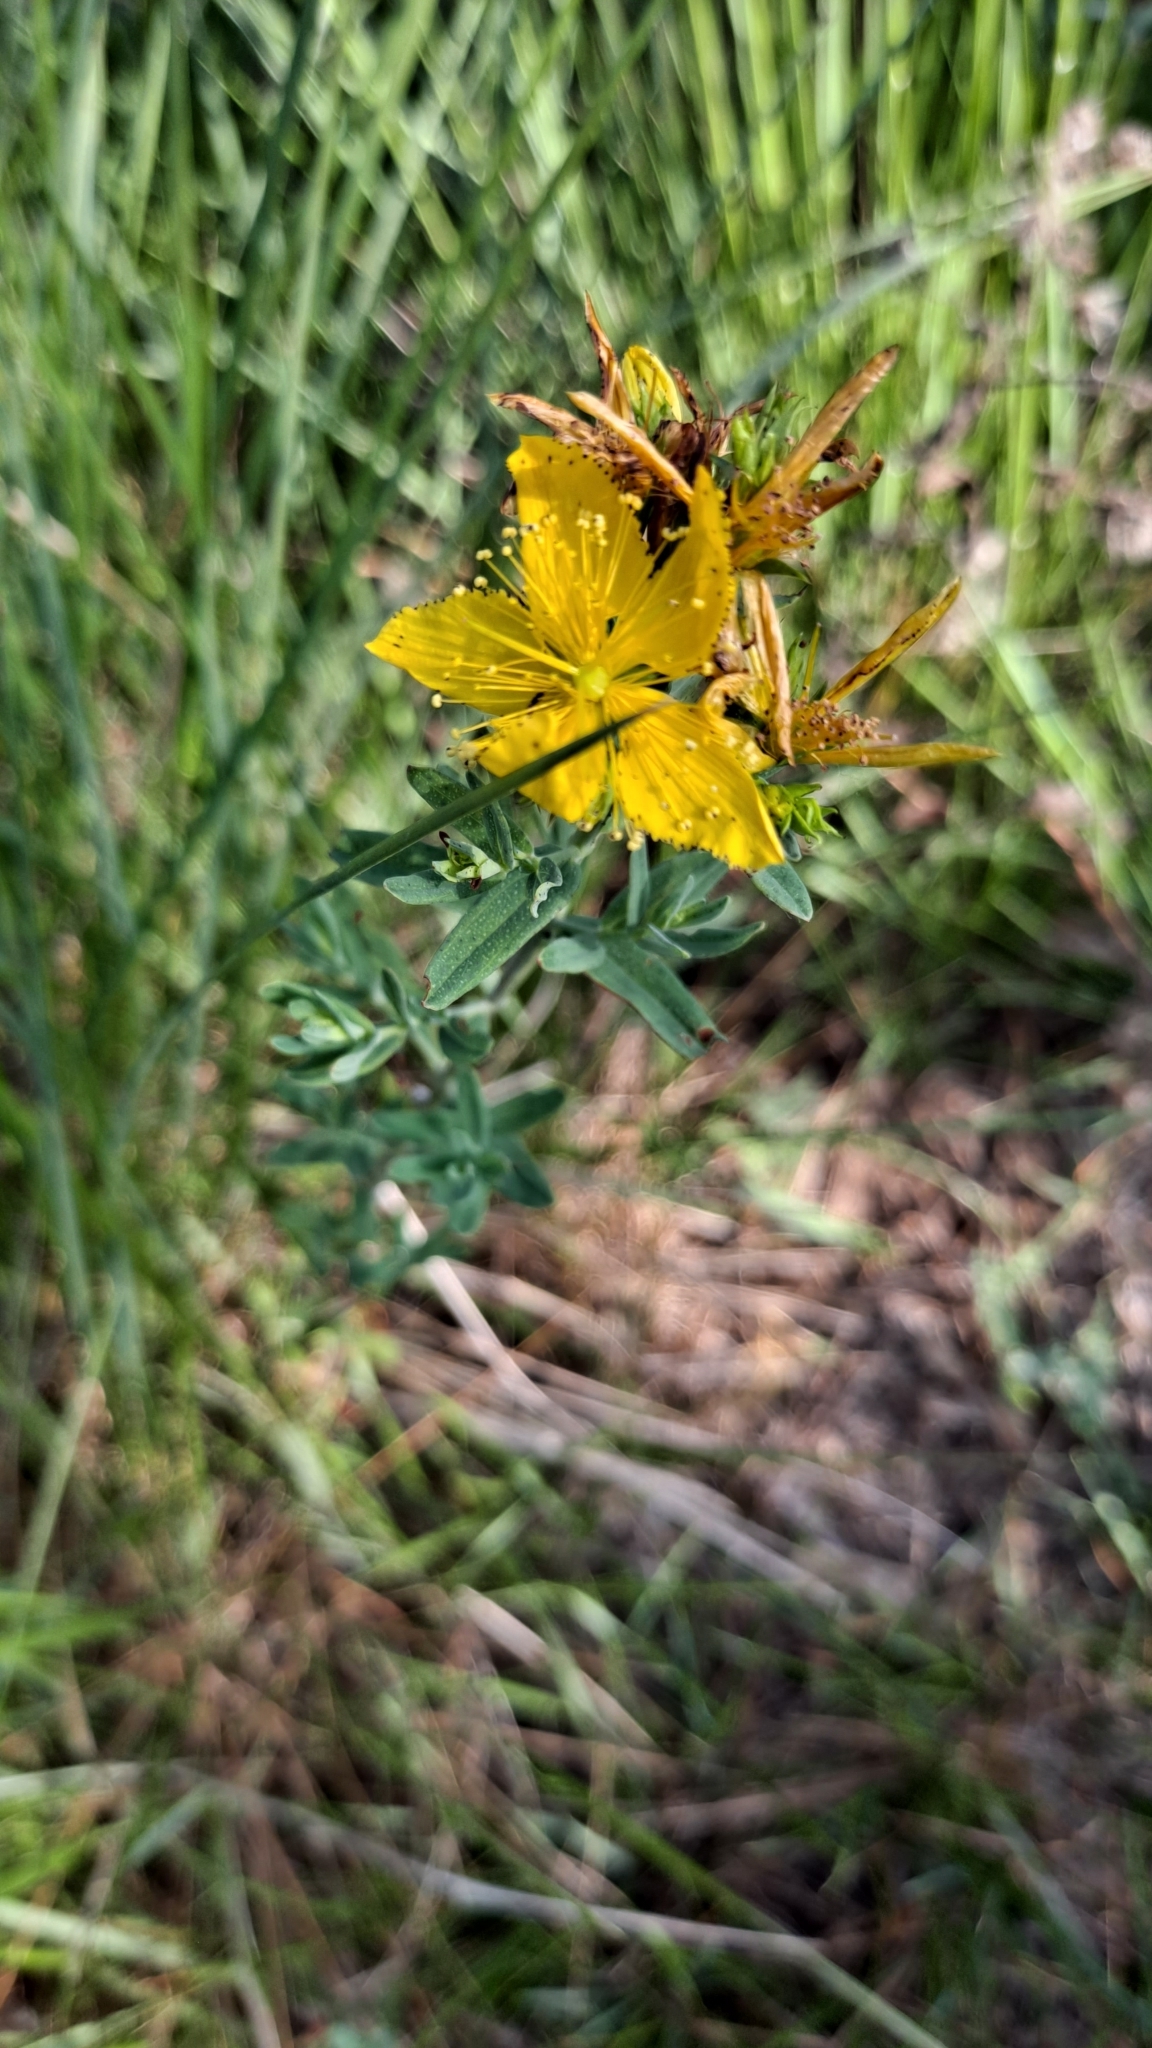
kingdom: Plantae
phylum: Tracheophyta
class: Magnoliopsida
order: Malpighiales
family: Hypericaceae
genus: Hypericum
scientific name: Hypericum perforatum
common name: Common st. johnswort
